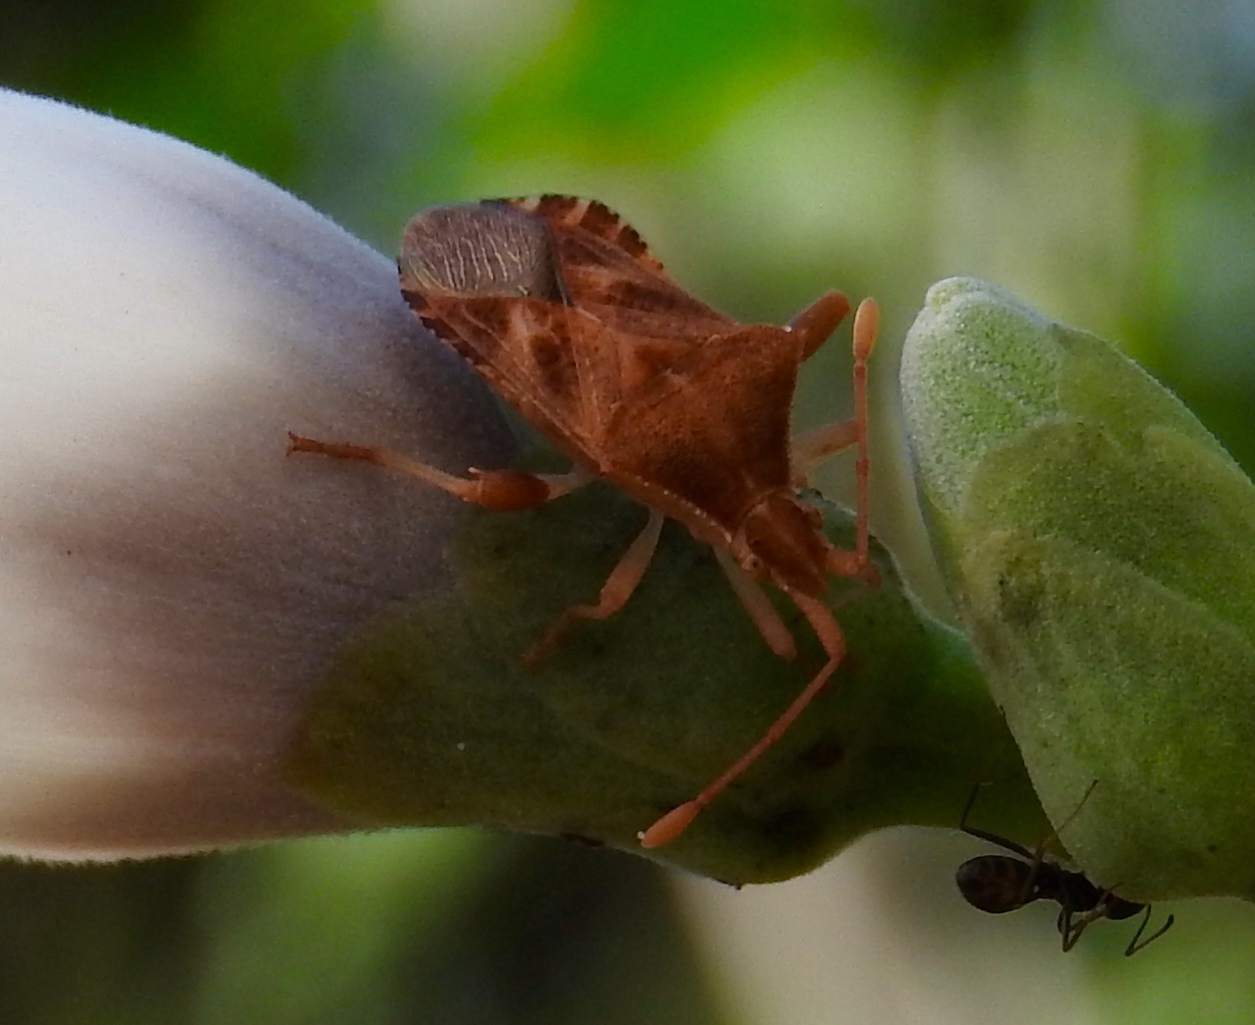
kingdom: Animalia
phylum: Arthropoda
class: Insecta
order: Hemiptera
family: Coreidae
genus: Dalmatomammurius
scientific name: Dalmatomammurius heissi
